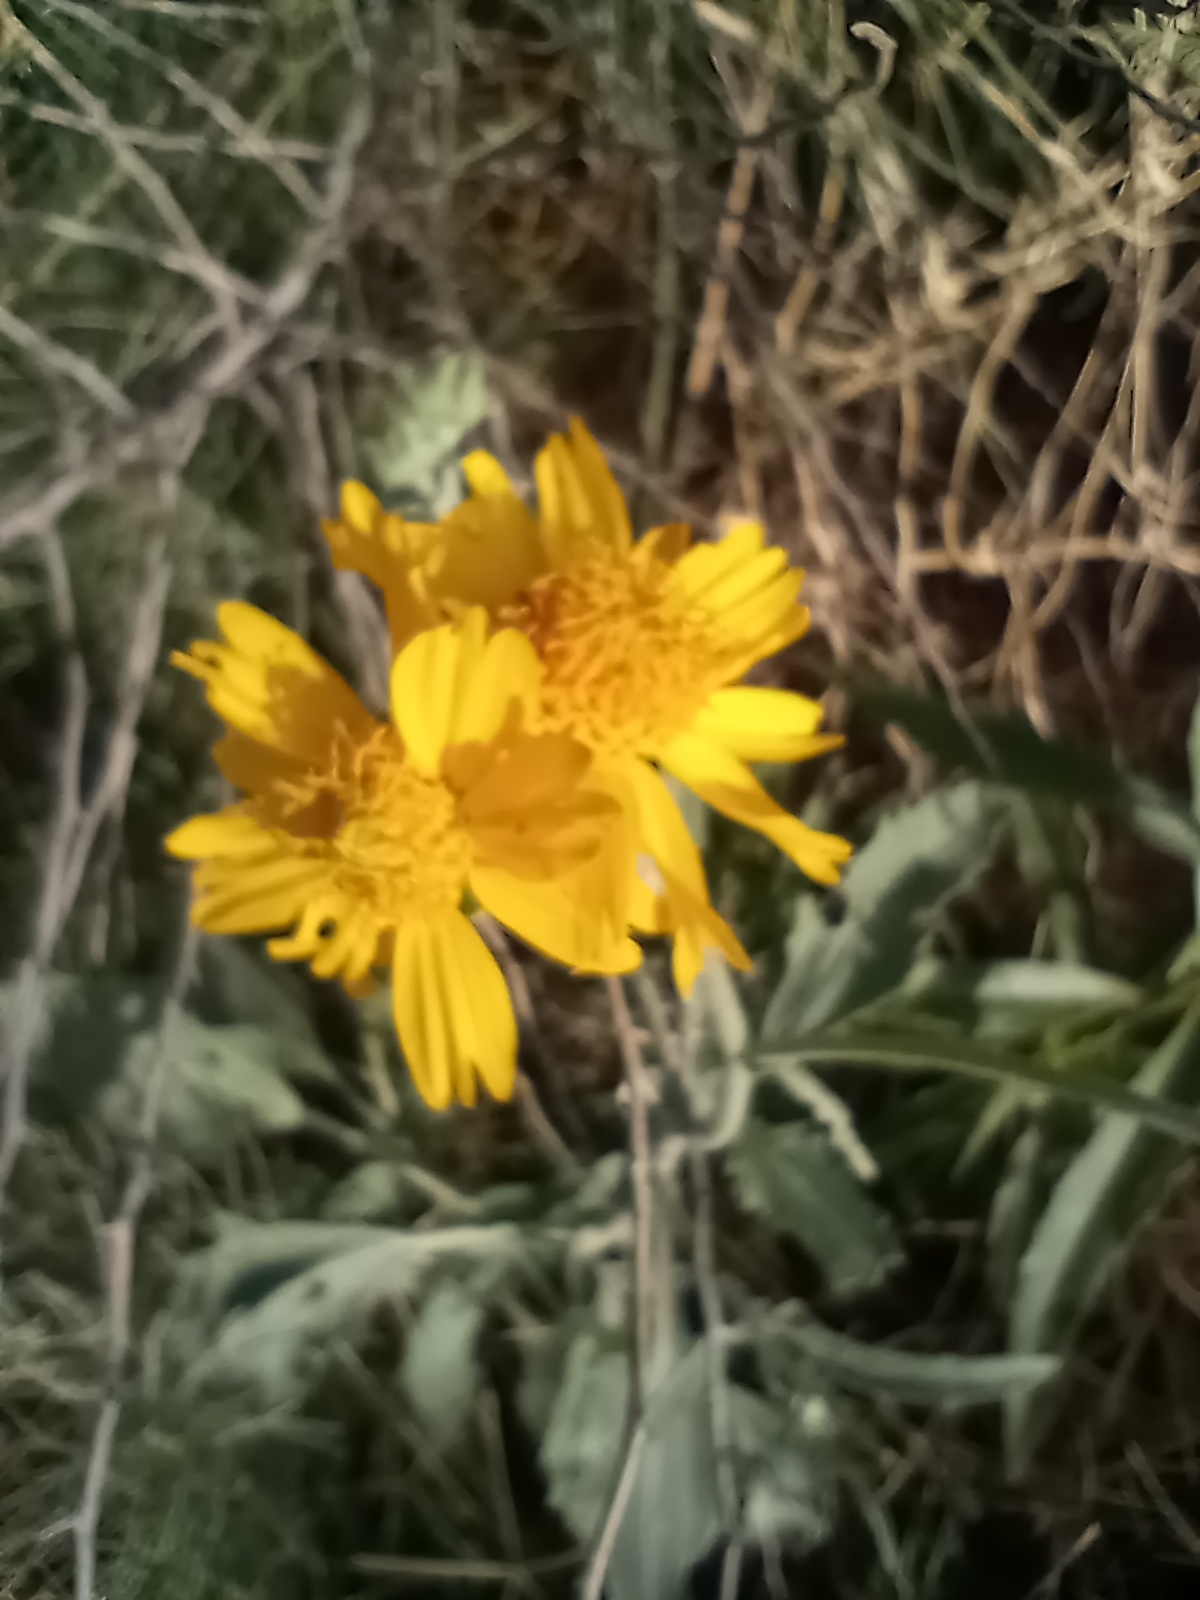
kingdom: Plantae
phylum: Tracheophyta
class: Magnoliopsida
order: Asterales
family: Asteraceae
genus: Verbesina
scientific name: Verbesina encelioides
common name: Golden crownbeard
